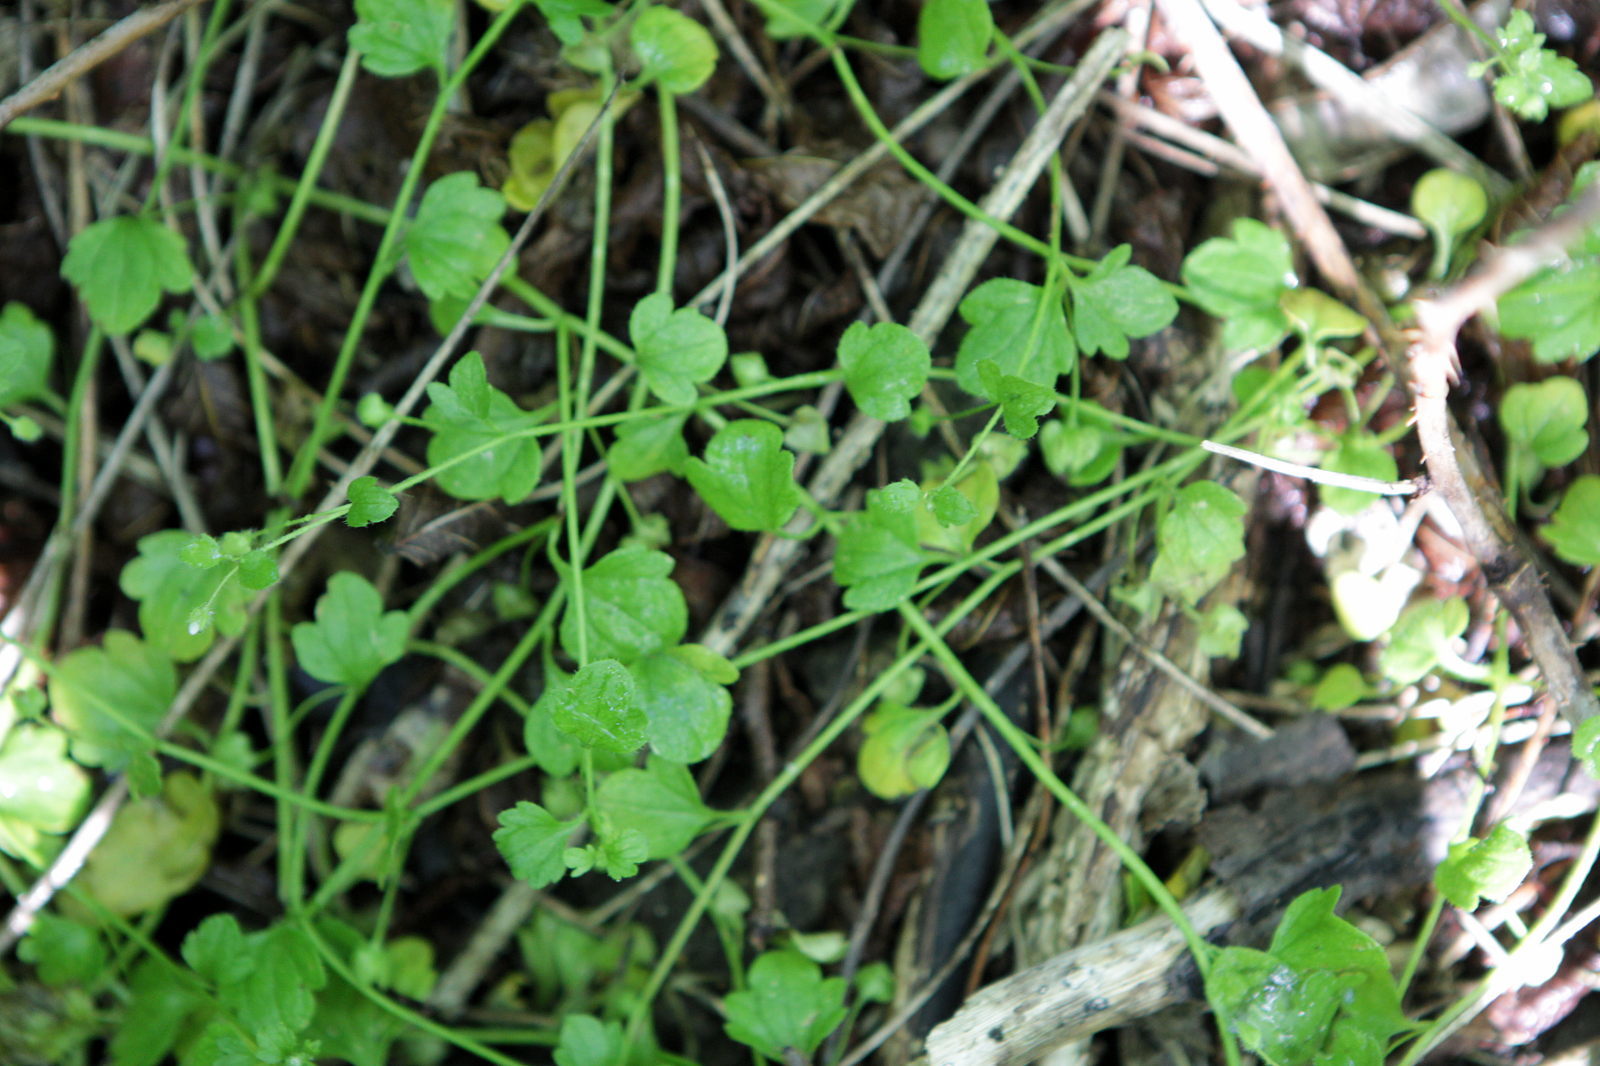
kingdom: Plantae
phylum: Tracheophyta
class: Magnoliopsida
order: Lamiales
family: Plantaginaceae
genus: Veronica
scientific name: Veronica hederifolia
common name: Ivy-leaved speedwell
